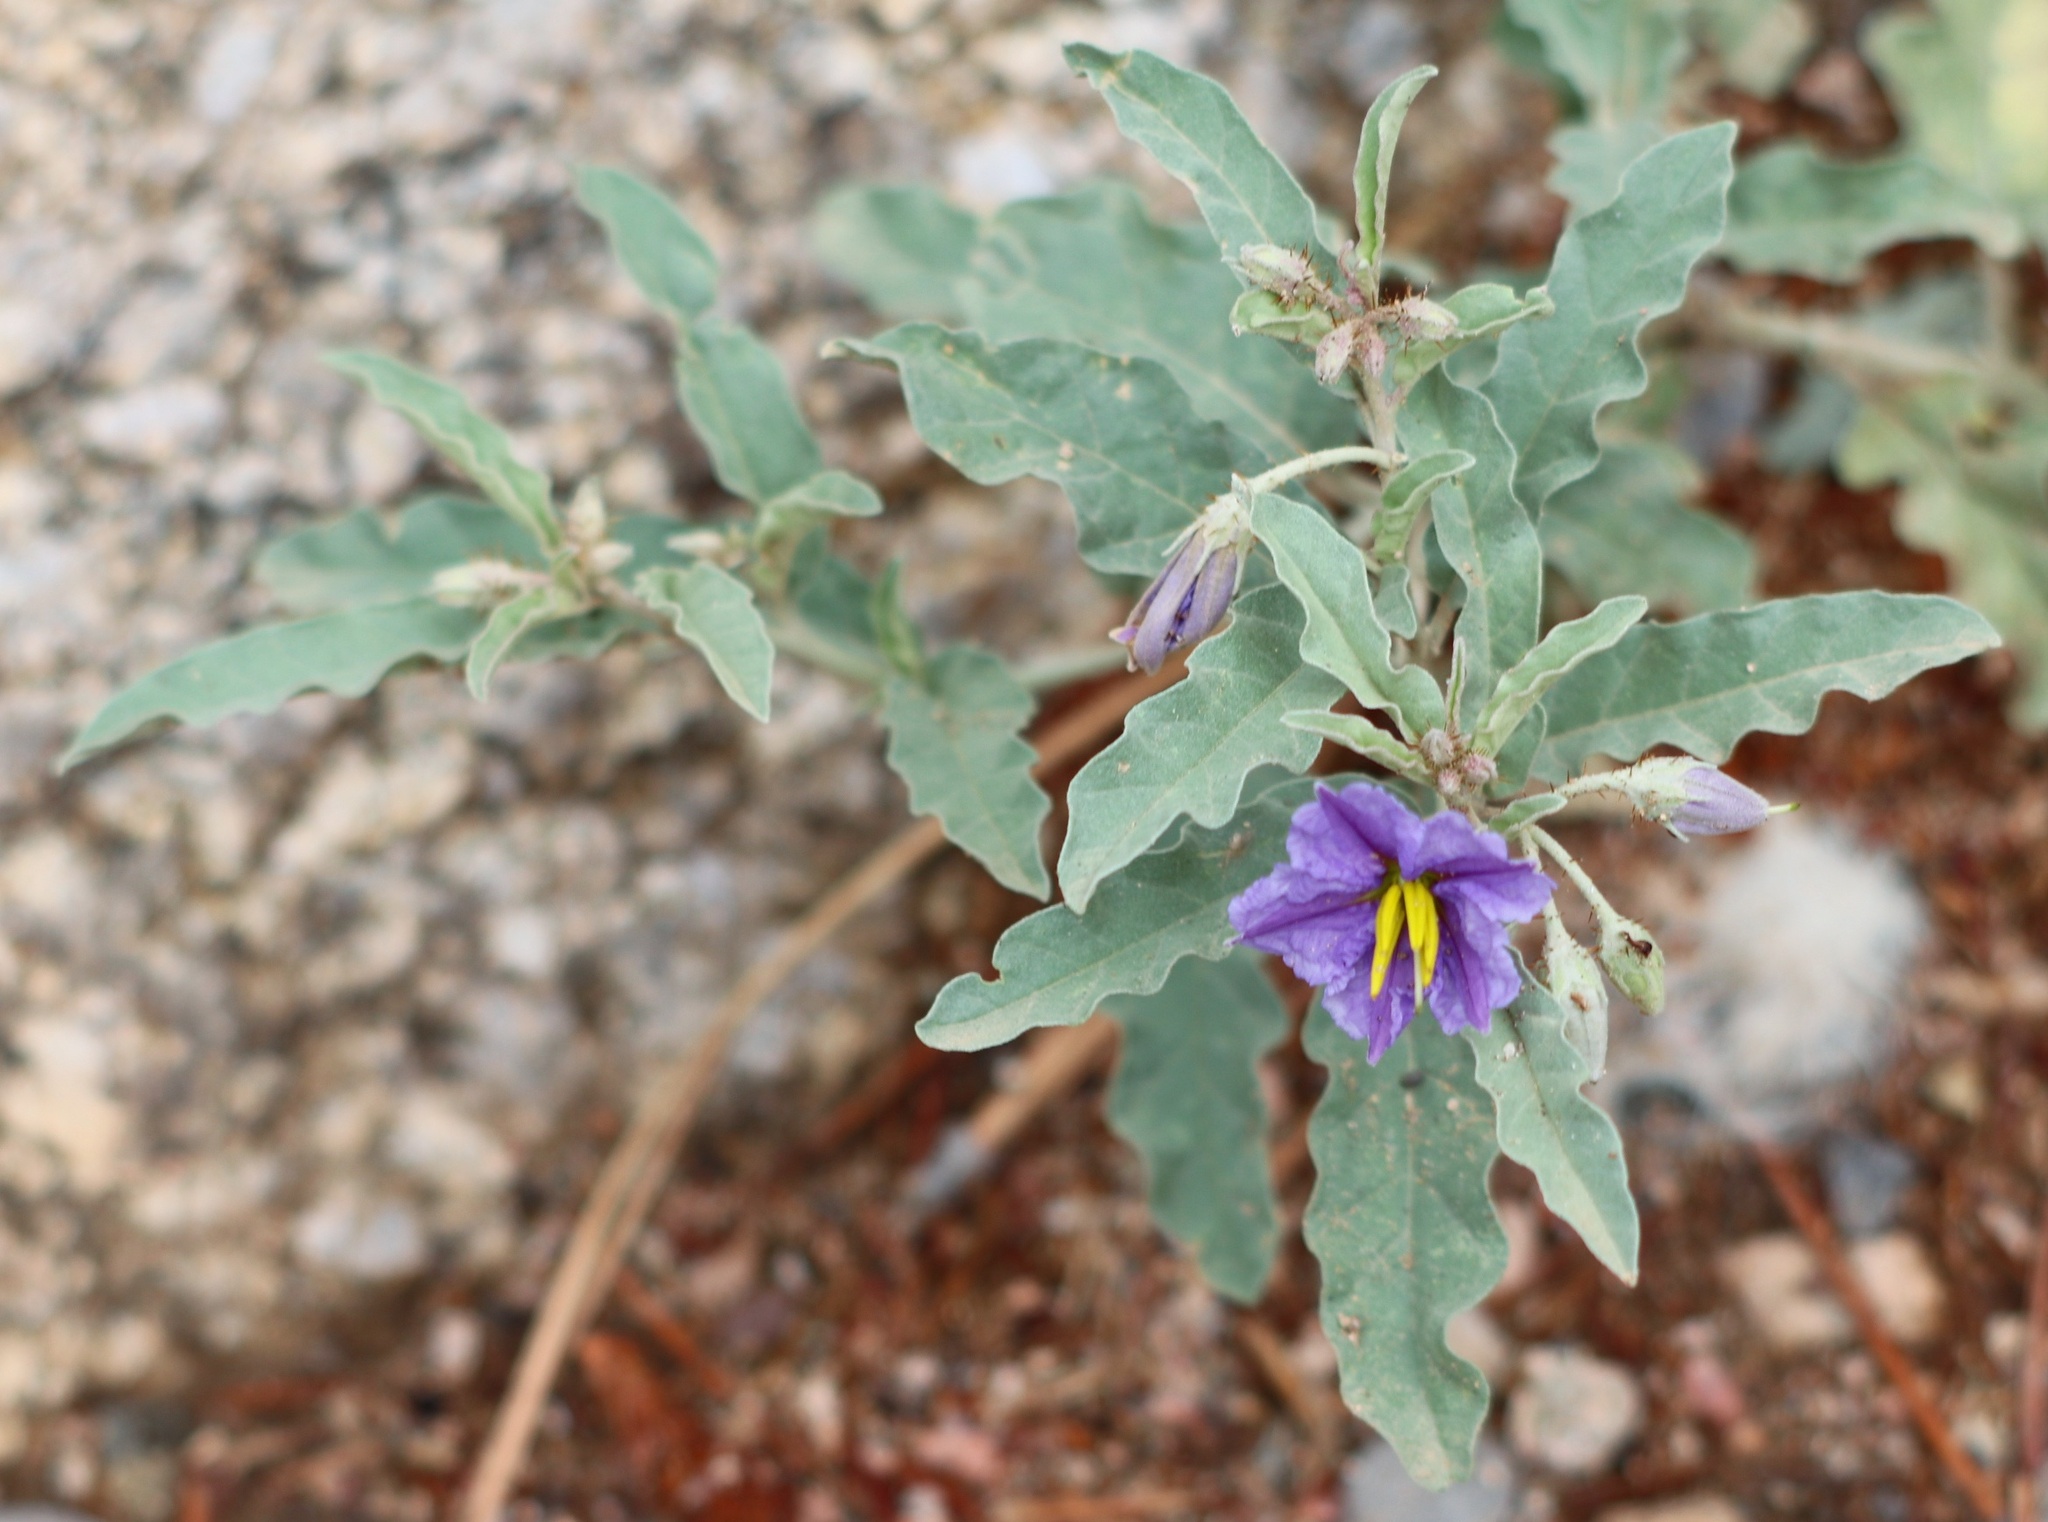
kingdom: Plantae
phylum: Tracheophyta
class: Magnoliopsida
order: Solanales
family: Solanaceae
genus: Solanum
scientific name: Solanum elaeagnifolium
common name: Silverleaf nightshade
